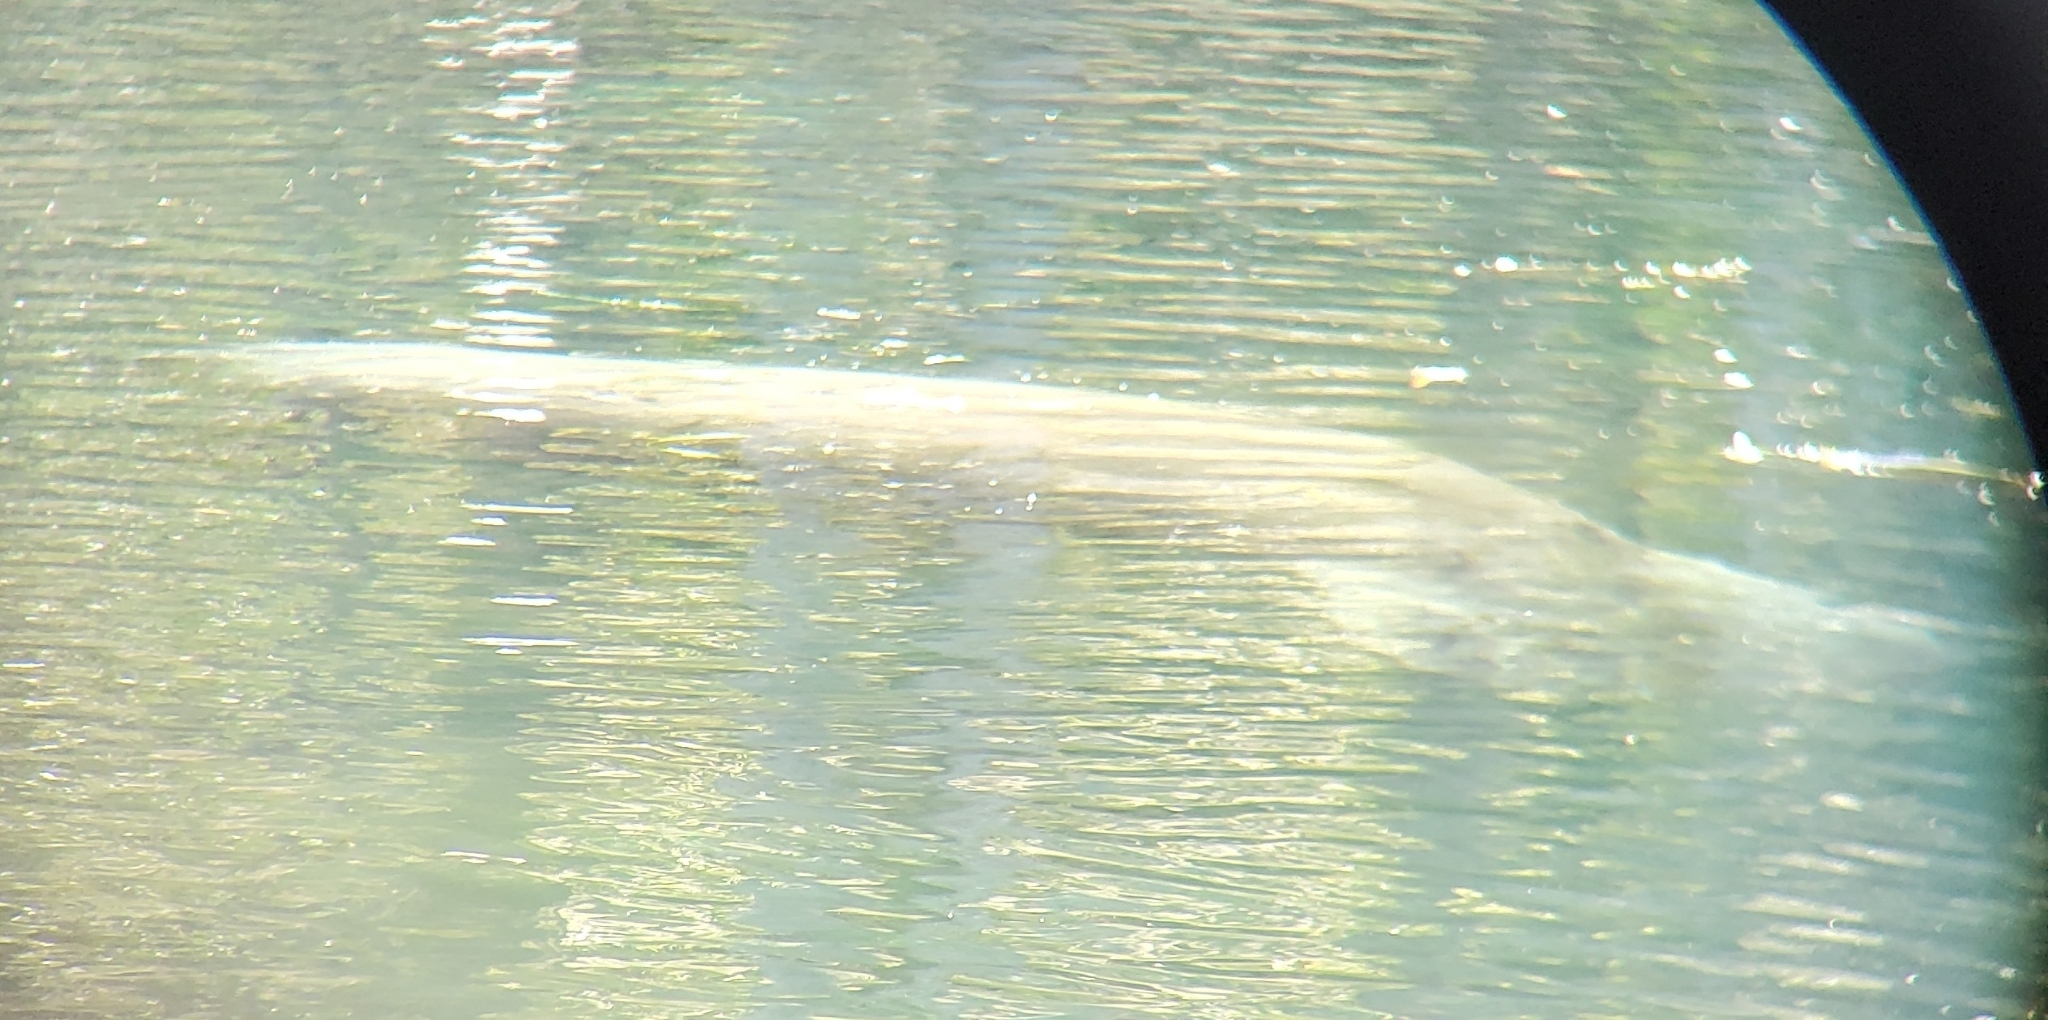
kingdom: Animalia
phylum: Chordata
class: Mammalia
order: Sirenia
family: Trichechidae
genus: Trichechus
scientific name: Trichechus manatus
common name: West indian manatee
